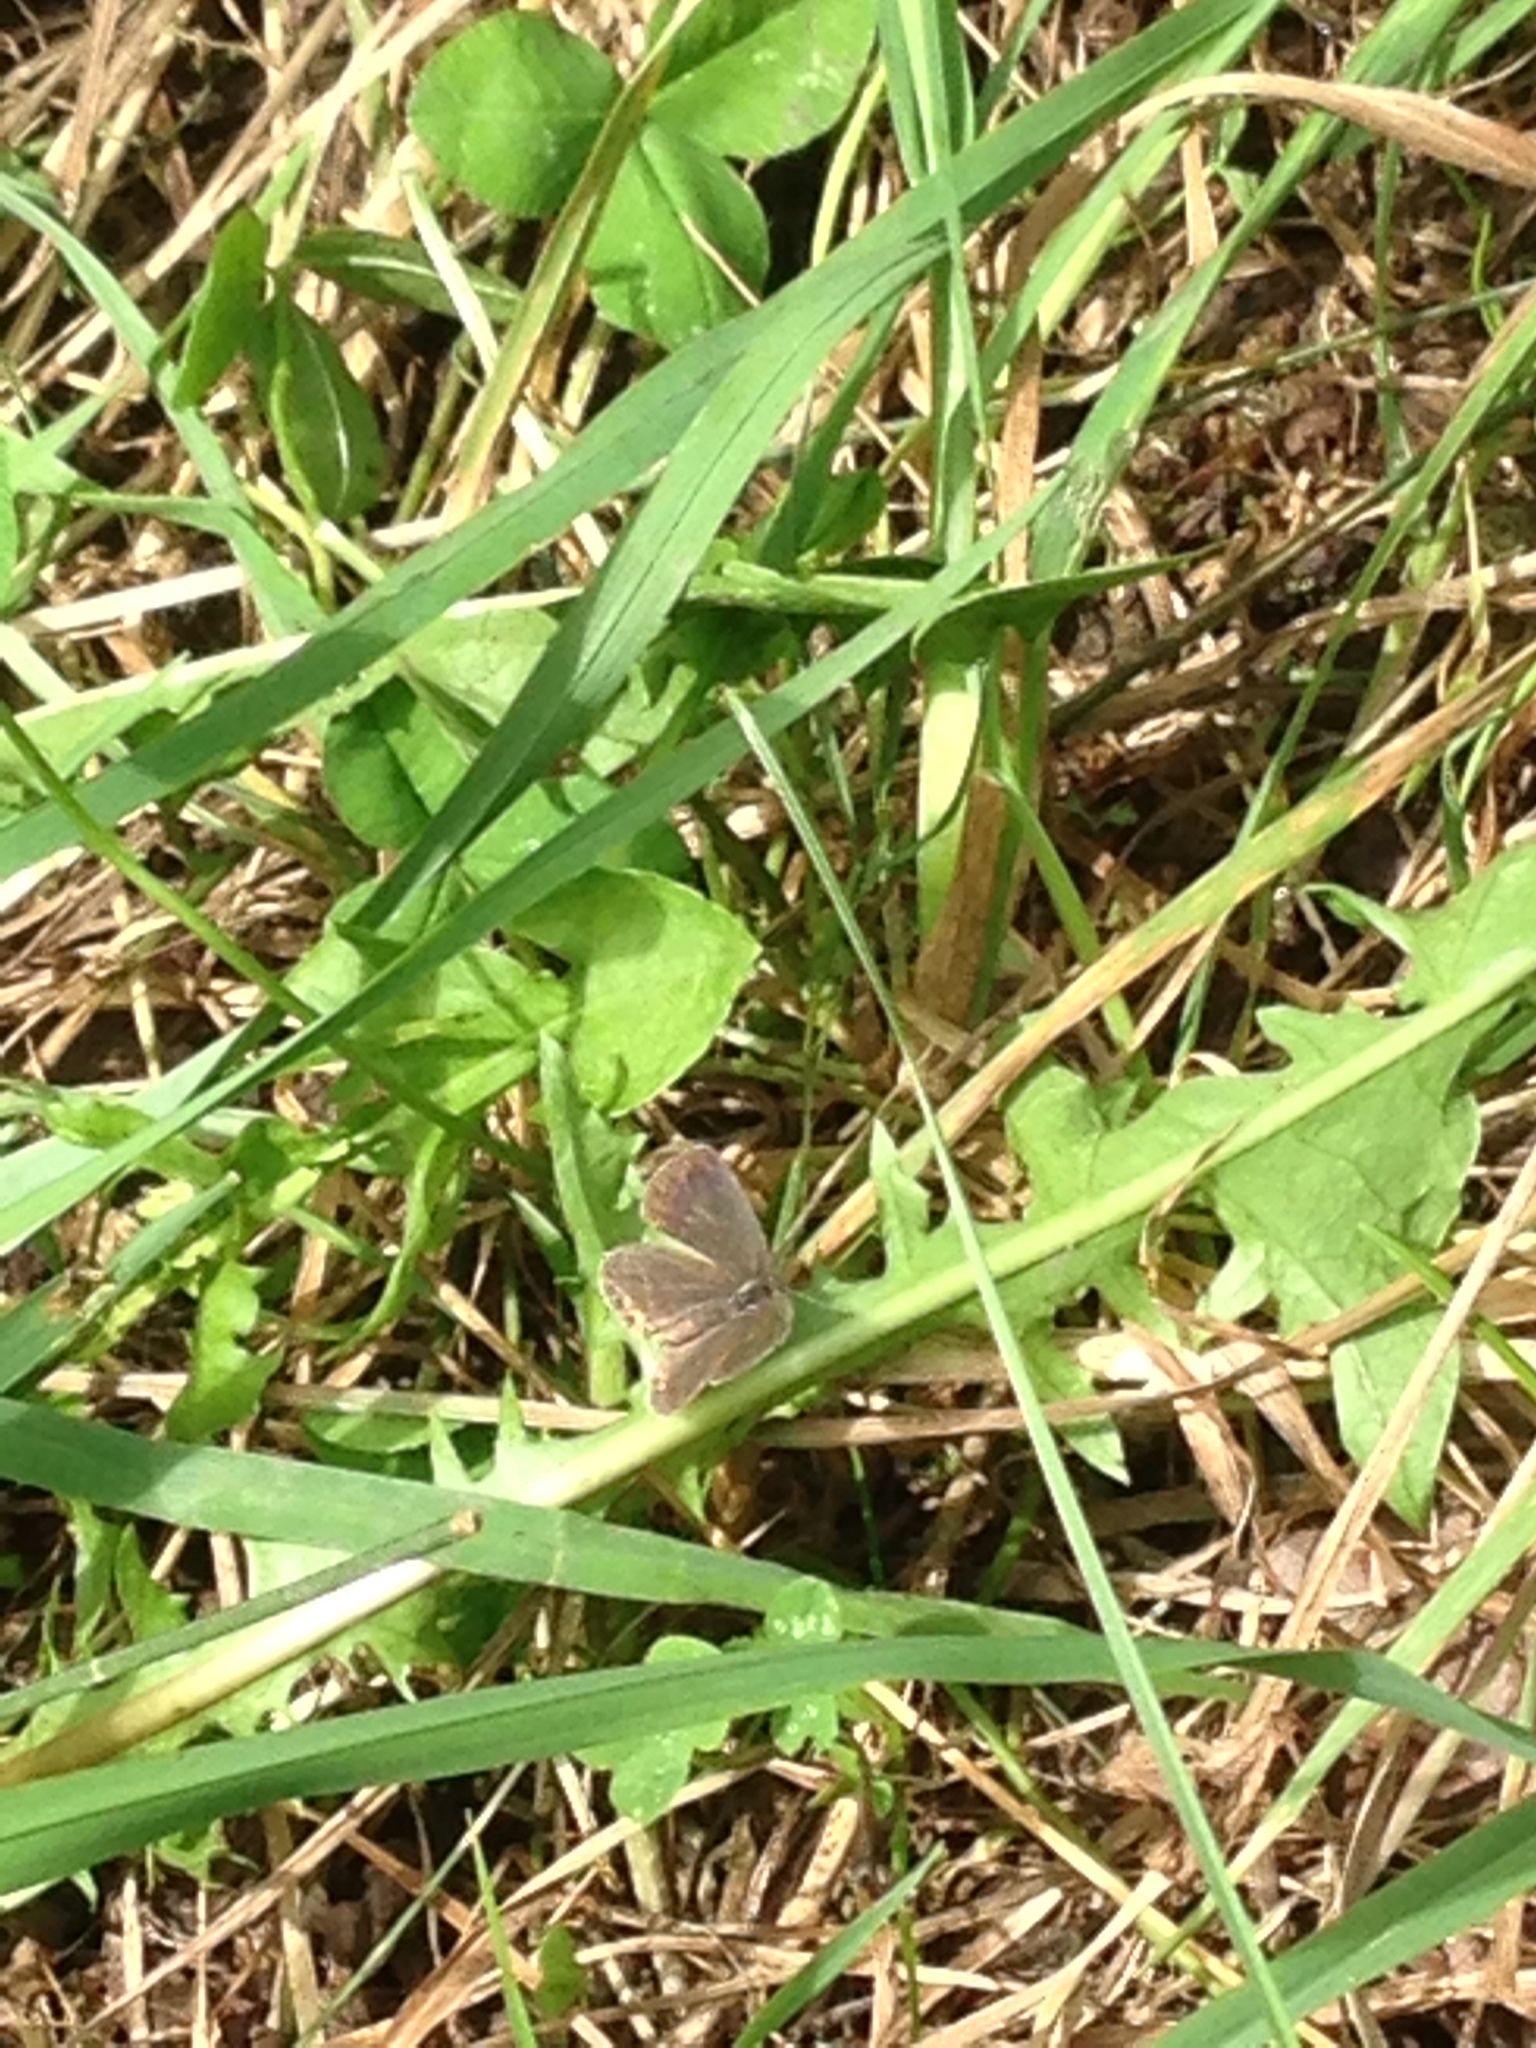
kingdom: Animalia
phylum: Arthropoda
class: Insecta
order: Lepidoptera
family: Lycaenidae
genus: Elkalyce
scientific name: Elkalyce comyntas
